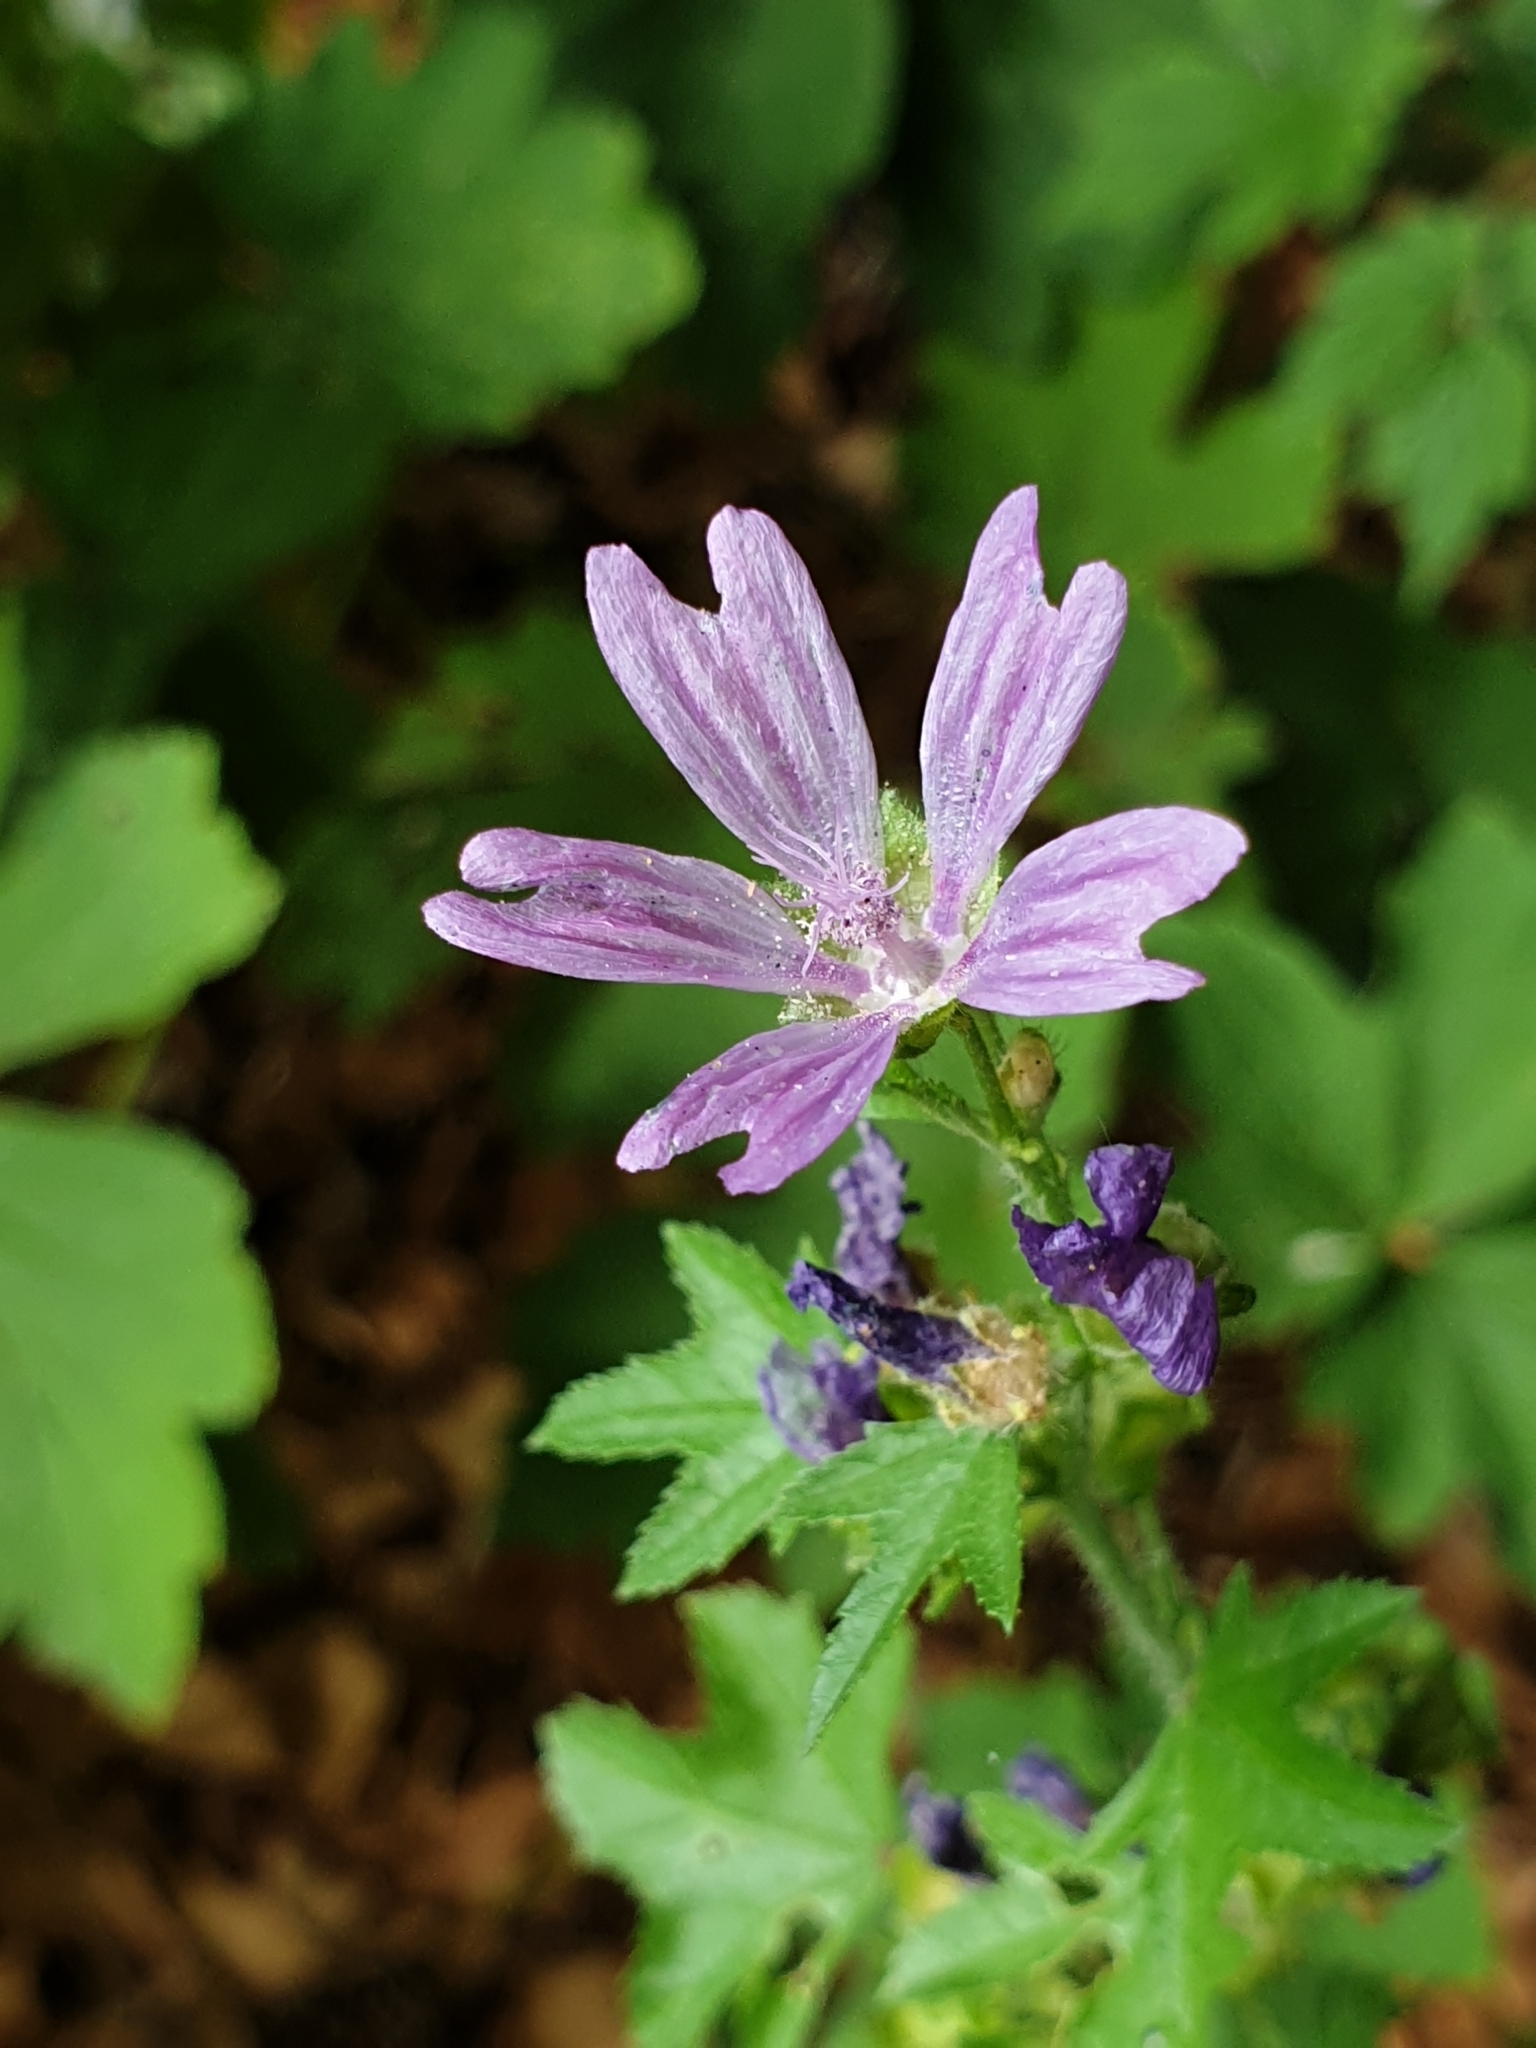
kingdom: Plantae
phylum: Tracheophyta
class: Magnoliopsida
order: Malvales
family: Malvaceae
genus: Malva
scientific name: Malva sylvestris
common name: Common mallow
